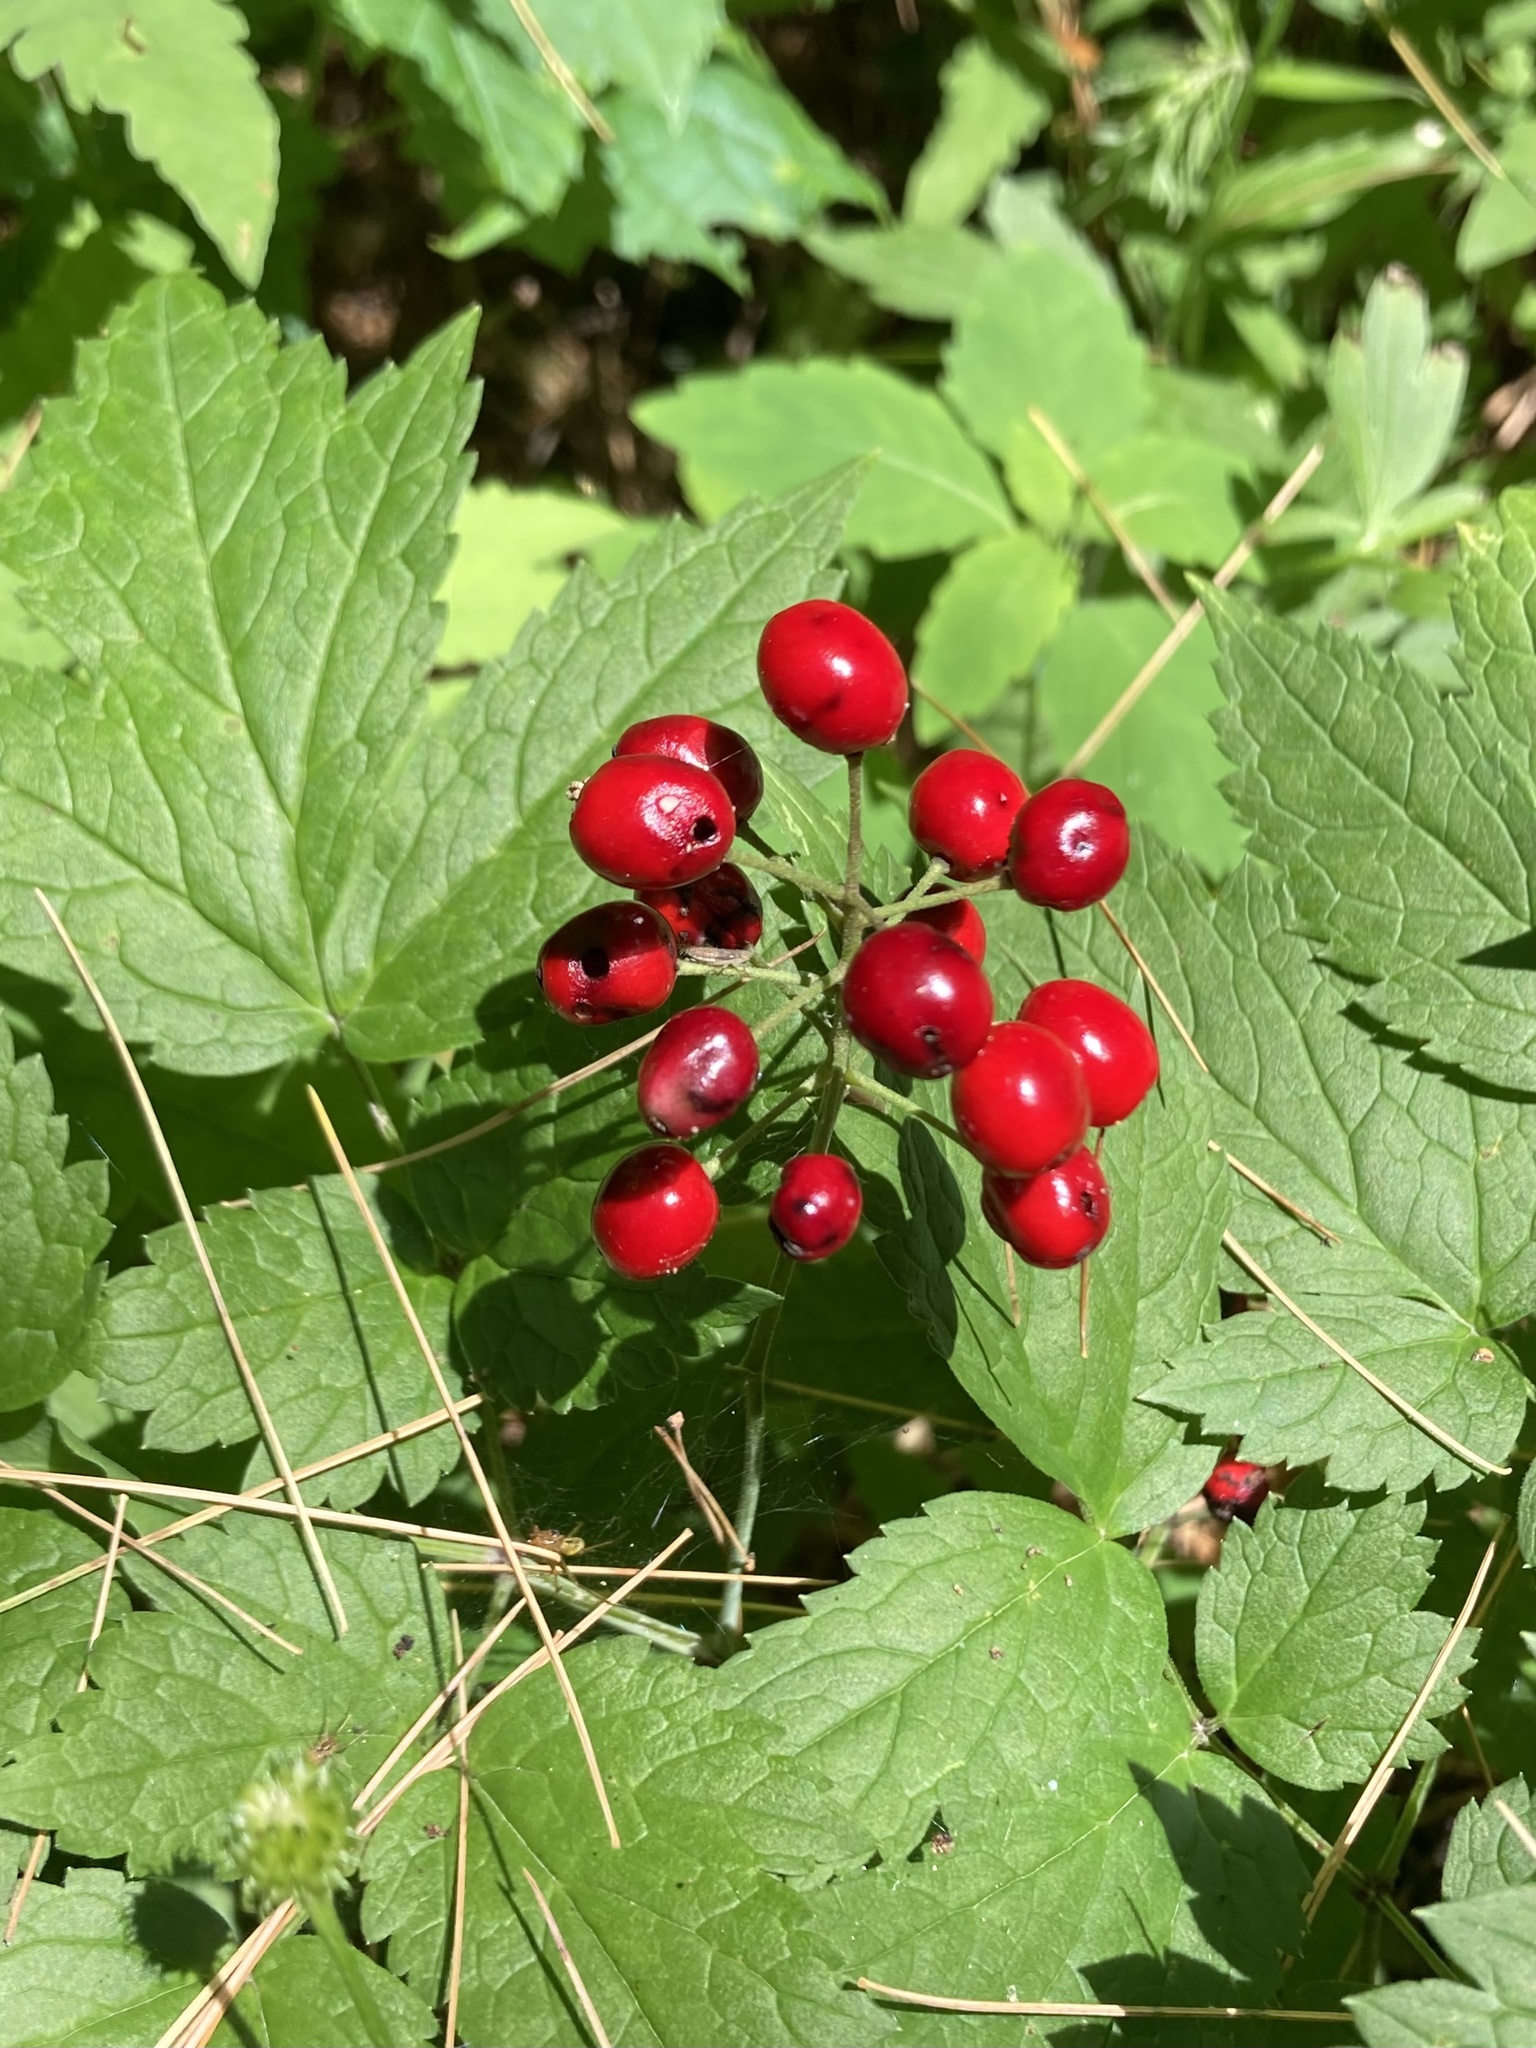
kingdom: Plantae
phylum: Tracheophyta
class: Magnoliopsida
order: Ranunculales
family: Ranunculaceae
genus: Actaea
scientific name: Actaea rubra
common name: Red baneberry
